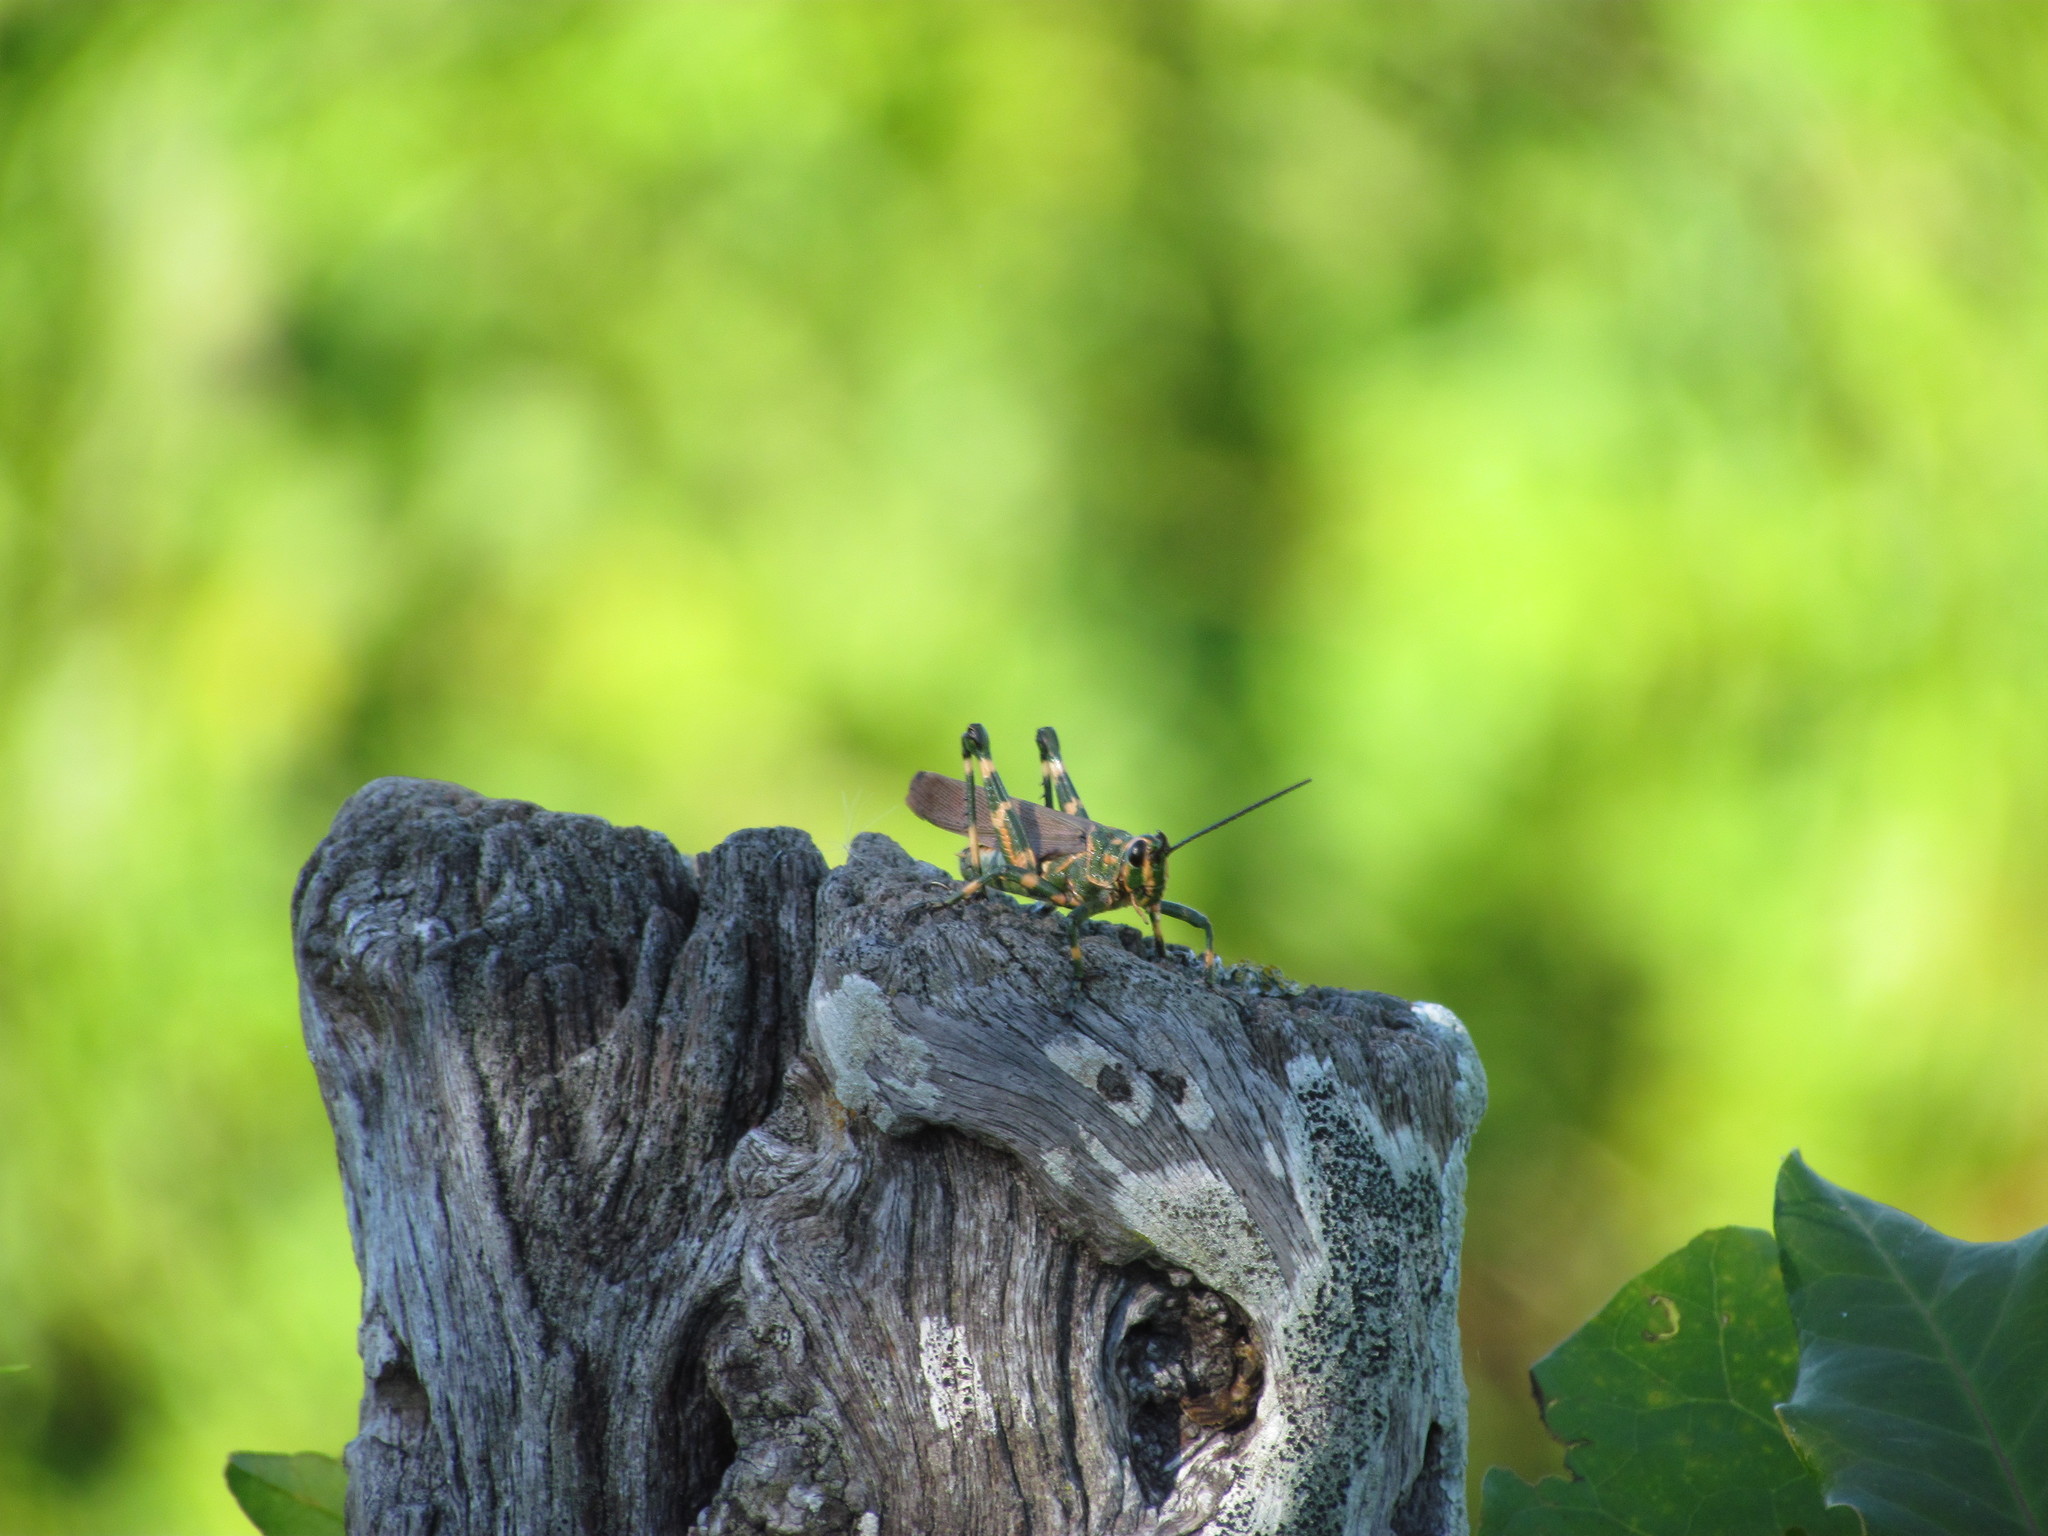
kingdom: Animalia
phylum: Arthropoda
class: Insecta
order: Orthoptera
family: Romaleidae
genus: Chromacris
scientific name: Chromacris speciosa
